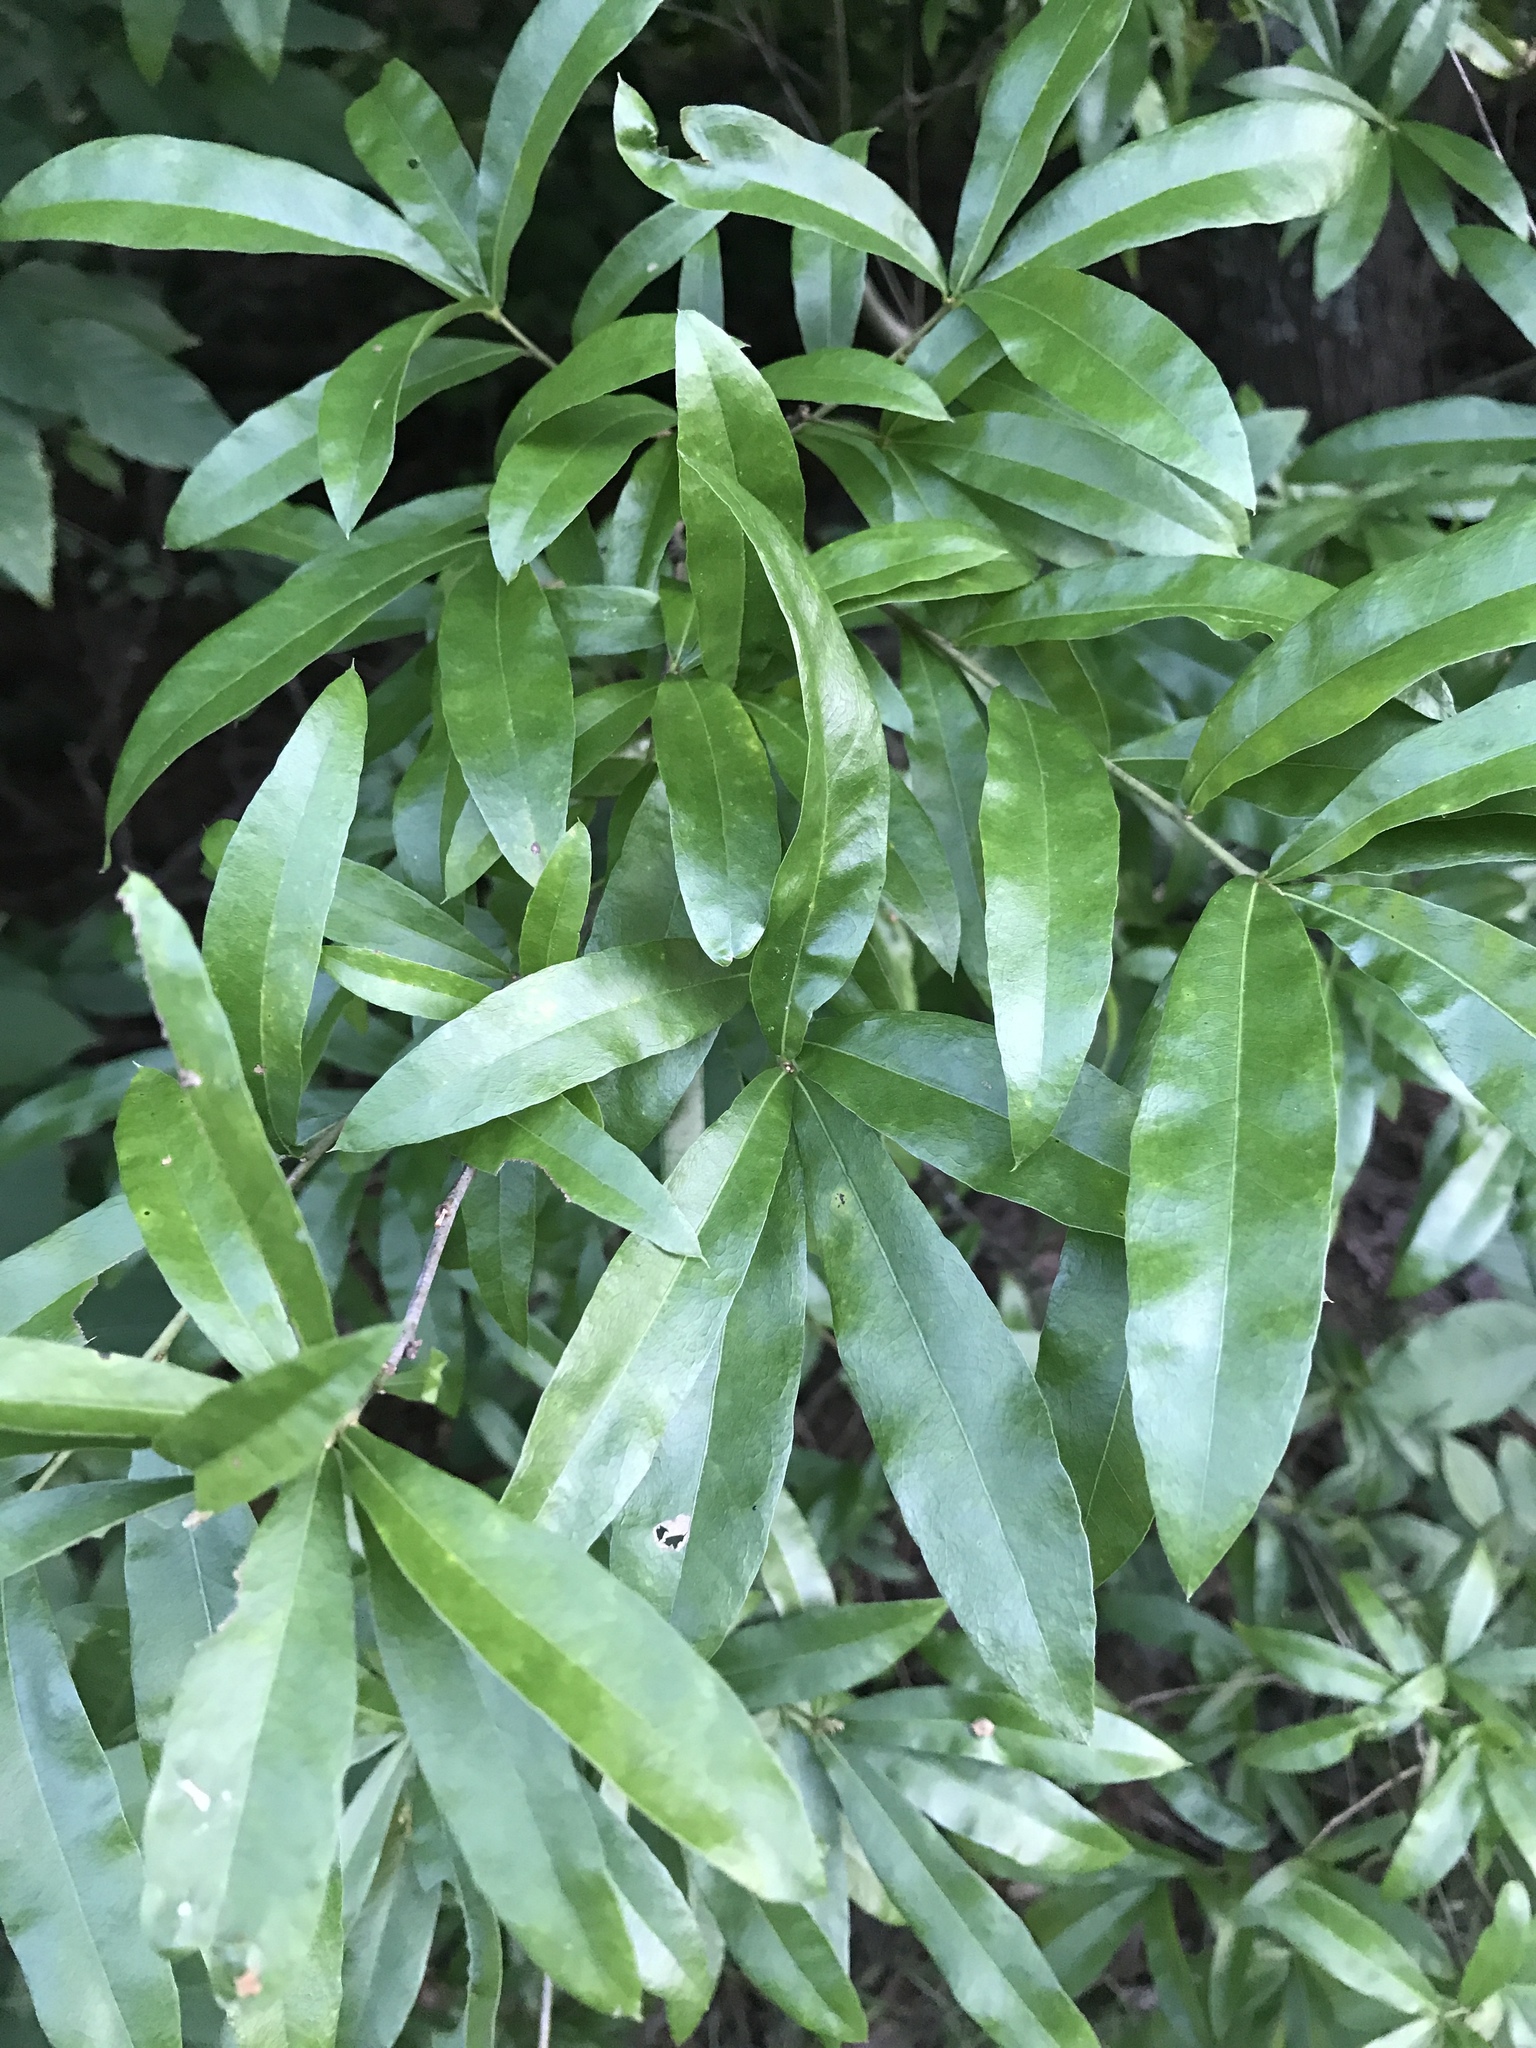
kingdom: Plantae
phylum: Tracheophyta
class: Magnoliopsida
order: Fagales
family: Fagaceae
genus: Quercus
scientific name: Quercus phellos
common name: Willow oak
